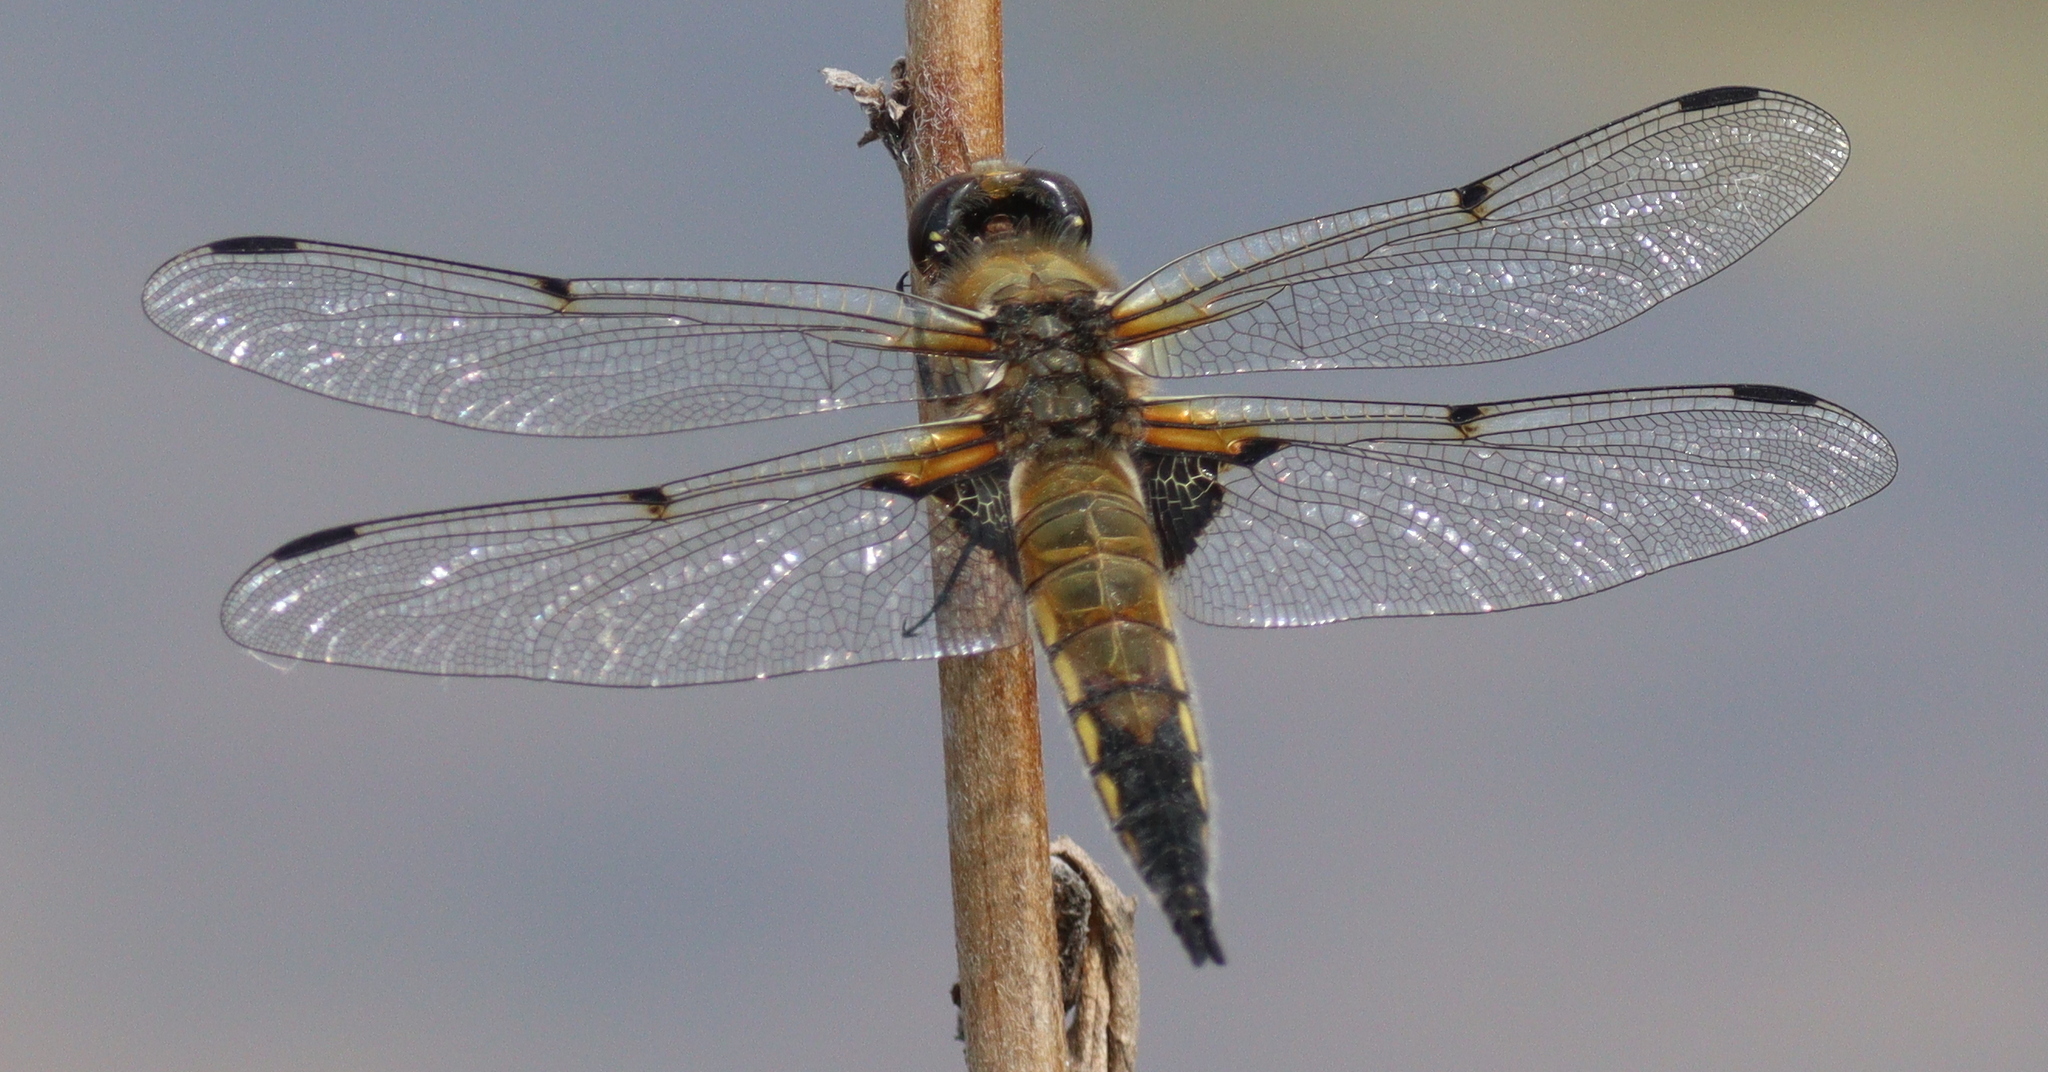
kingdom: Animalia
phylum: Arthropoda
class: Insecta
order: Odonata
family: Libellulidae
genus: Libellula
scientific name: Libellula quadrimaculata
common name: Four-spotted chaser
